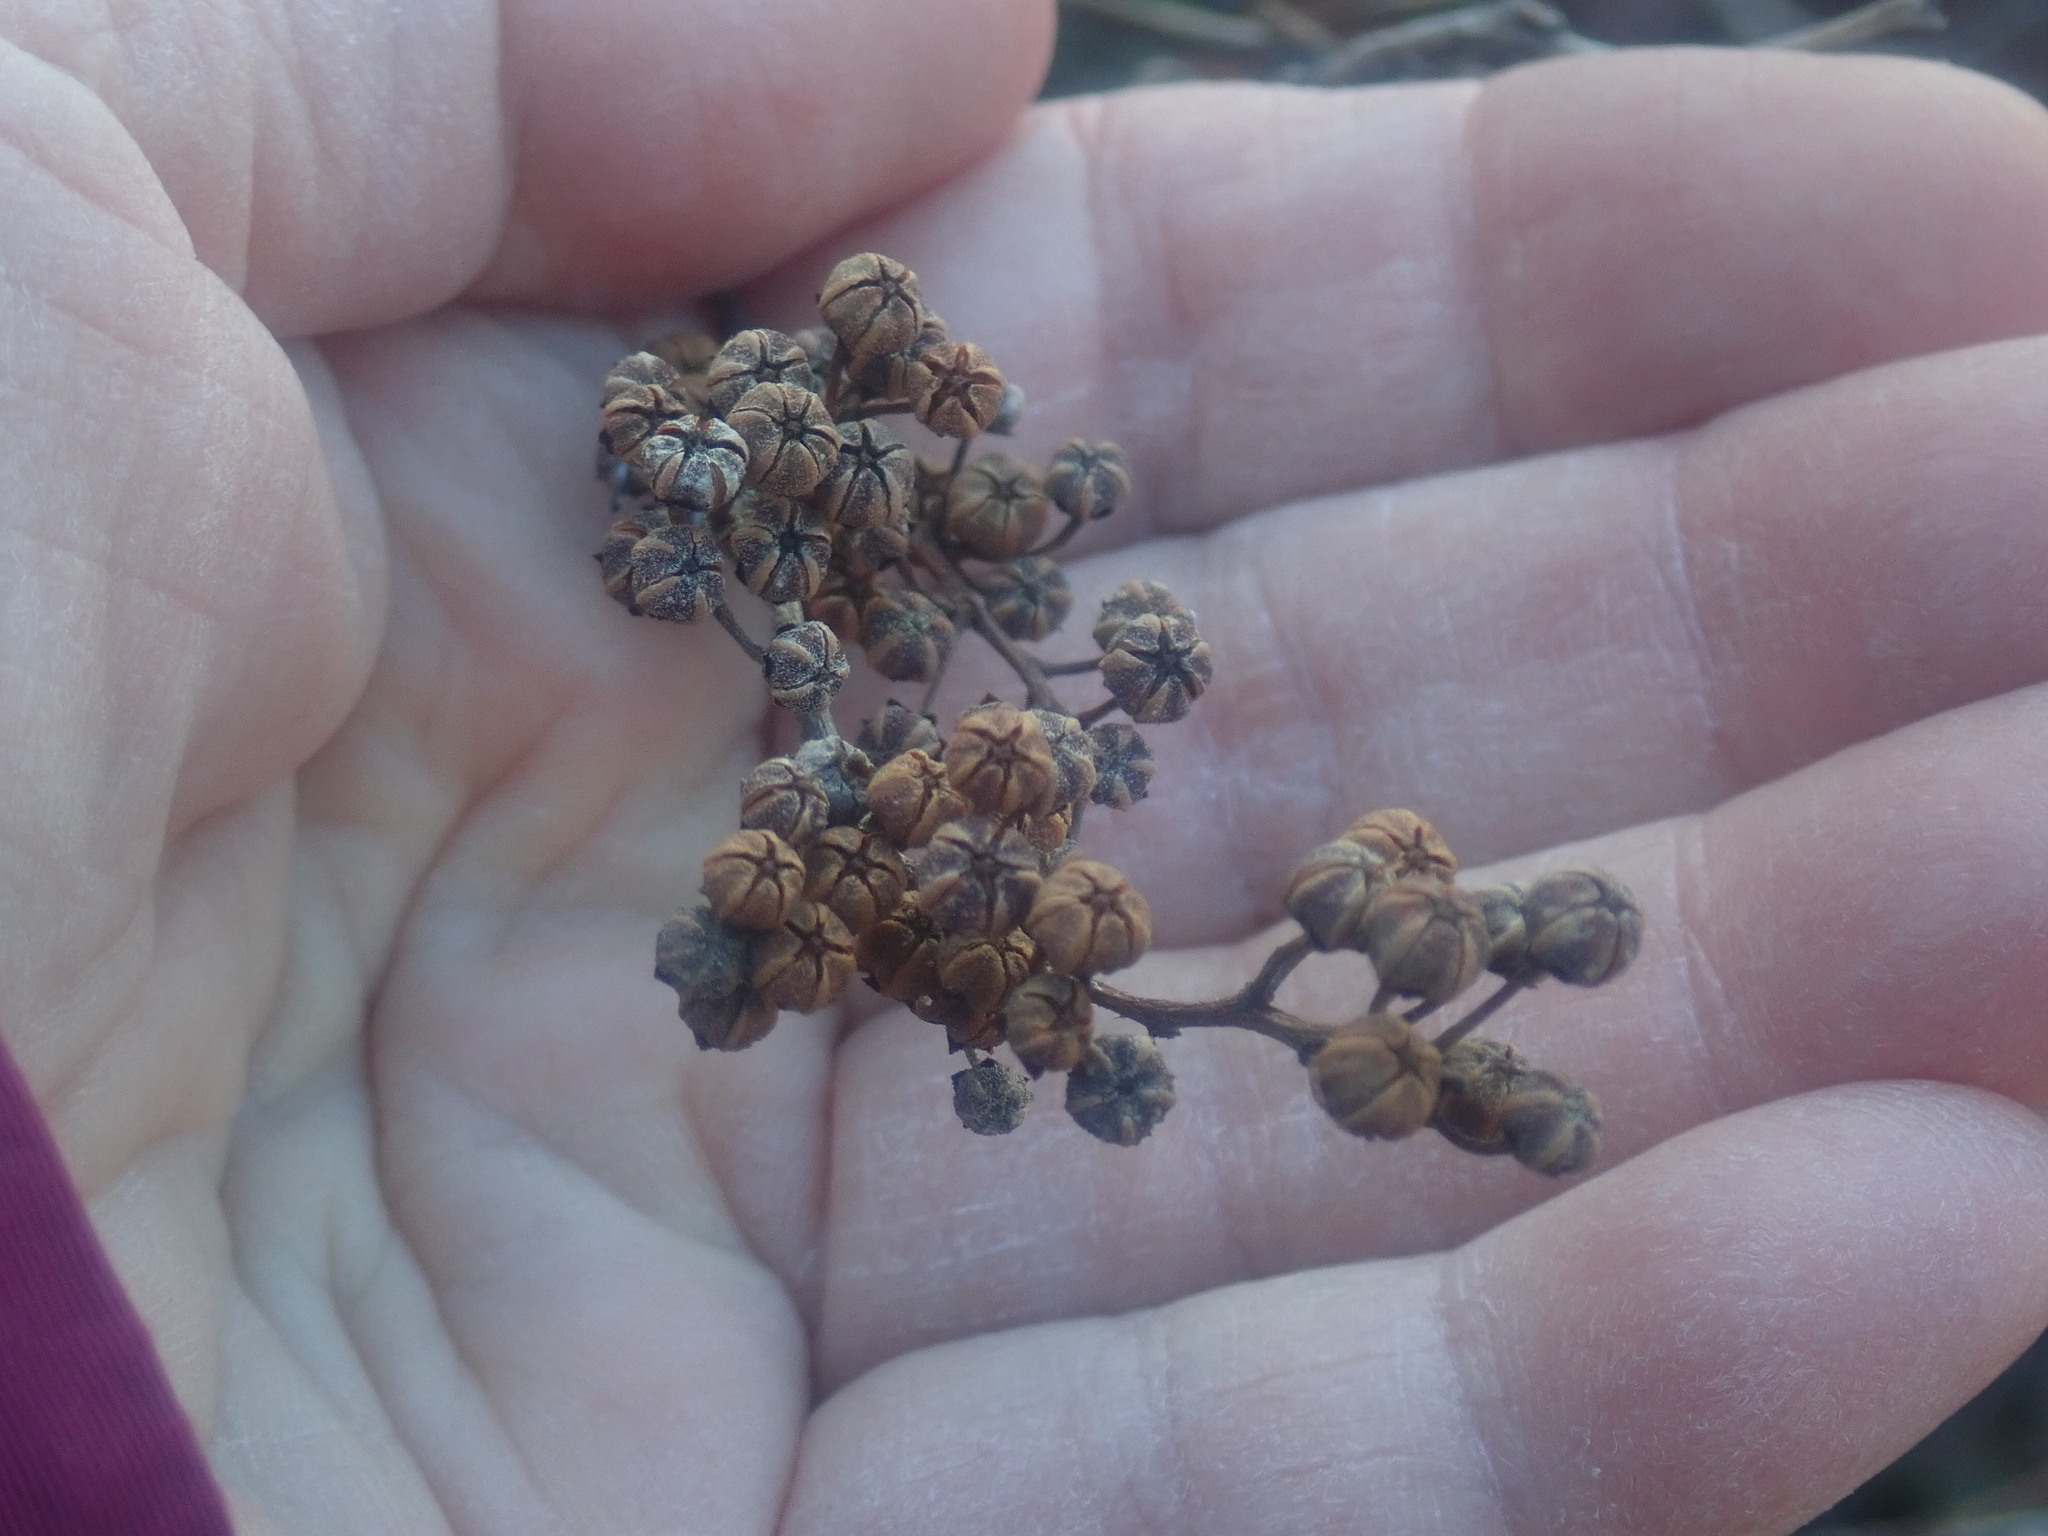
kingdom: Plantae
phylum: Tracheophyta
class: Magnoliopsida
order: Ericales
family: Ericaceae
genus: Lyonia
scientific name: Lyonia ligustrina
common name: Maleberry
